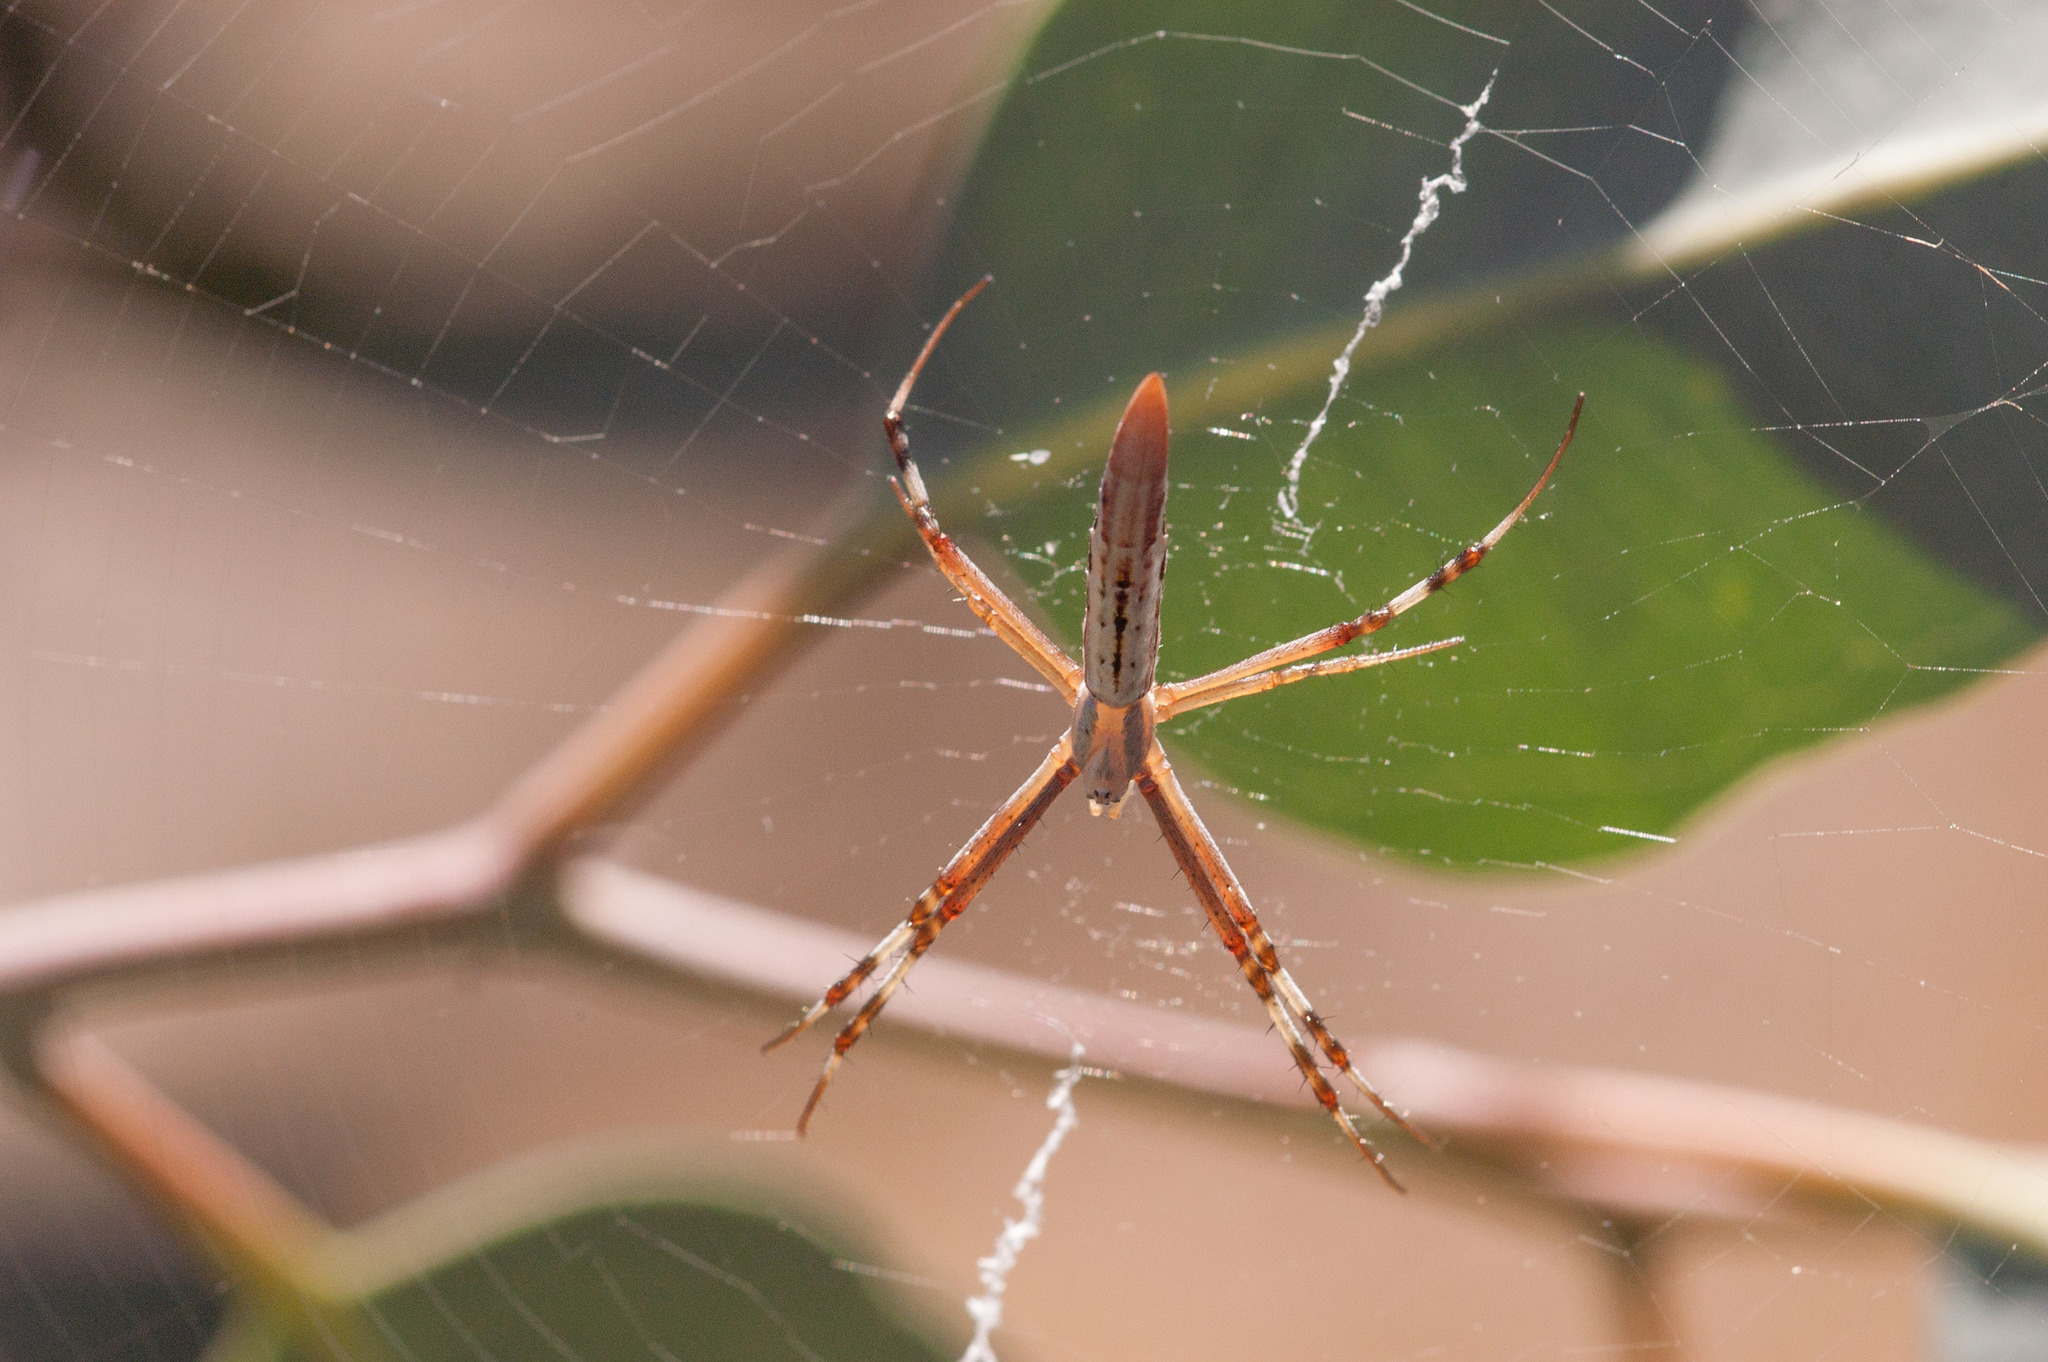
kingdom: Animalia
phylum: Arthropoda
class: Arachnida
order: Araneae
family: Araneidae
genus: Argiope
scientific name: Argiope protensa
